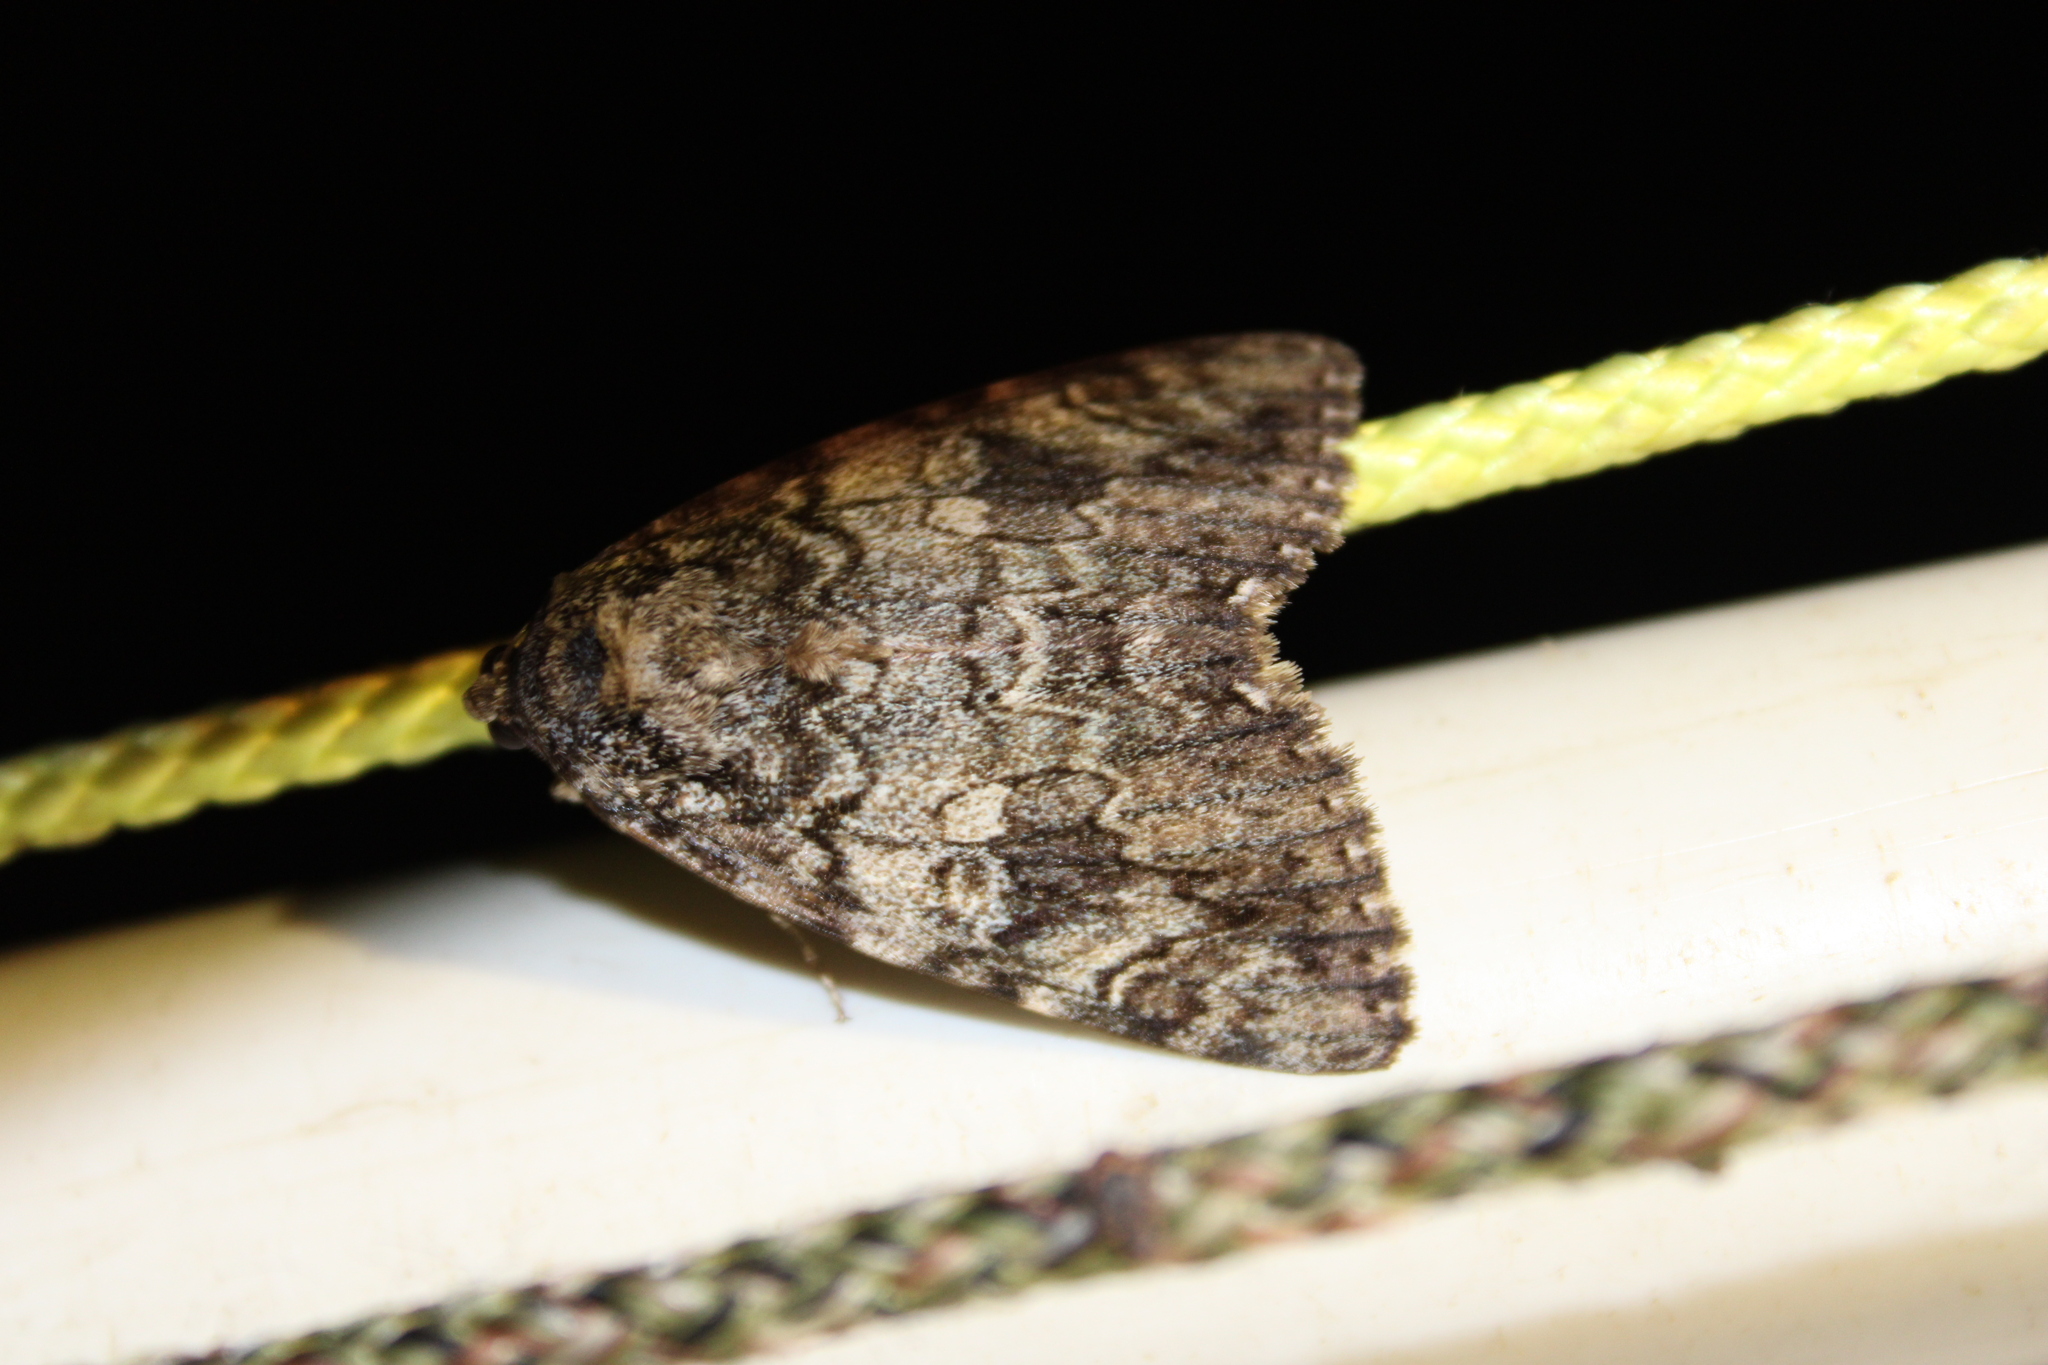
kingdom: Animalia
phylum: Arthropoda
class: Insecta
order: Lepidoptera
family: Erebidae
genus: Catocala
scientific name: Catocala ilia
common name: Ilia underwing
